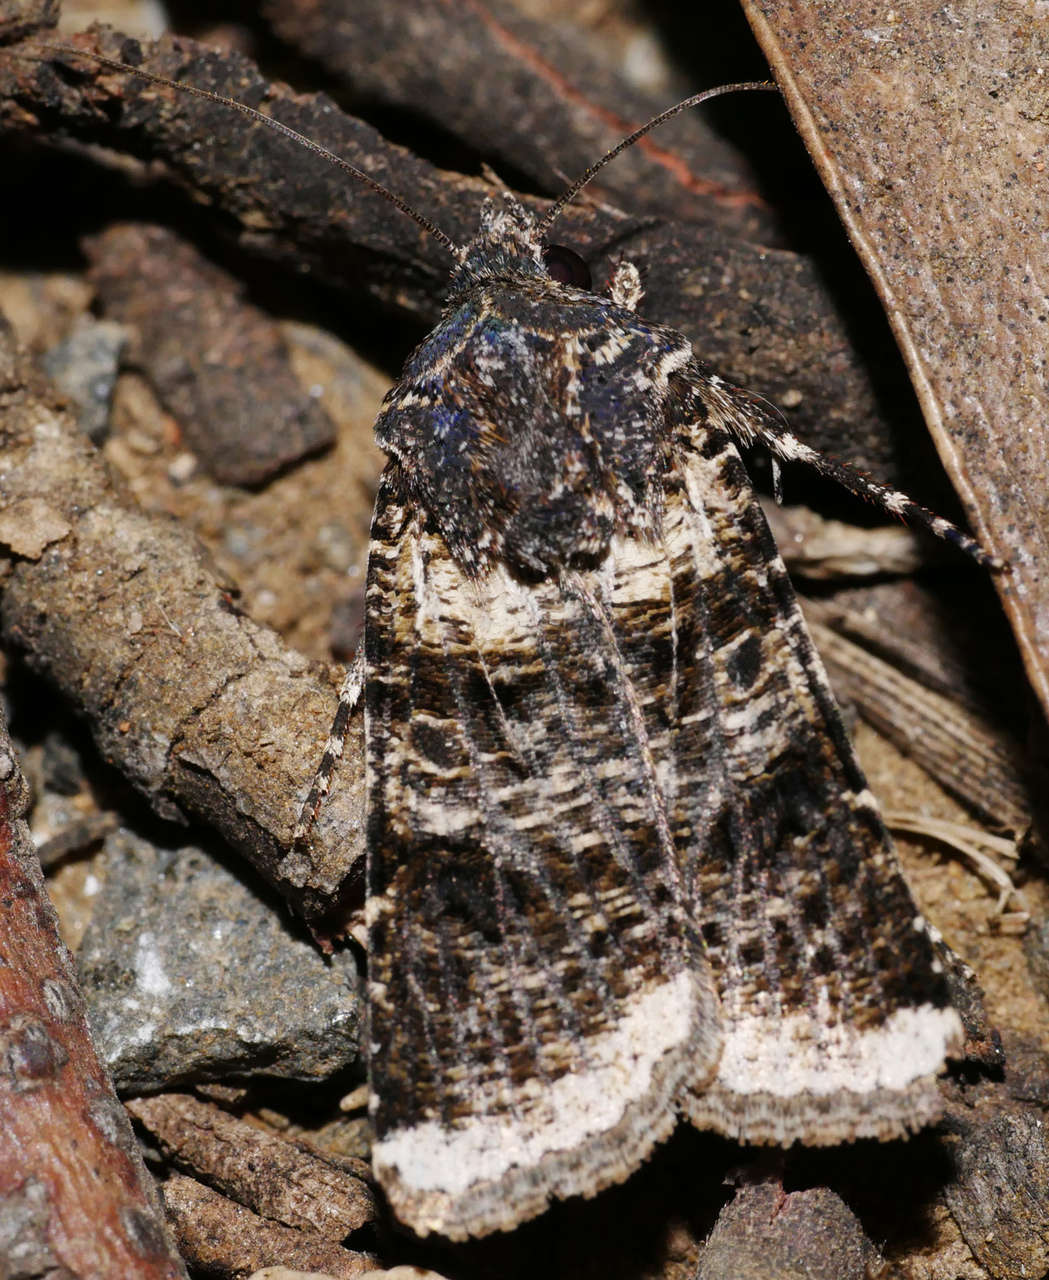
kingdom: Animalia
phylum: Arthropoda
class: Insecta
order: Lepidoptera
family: Noctuidae
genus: Agrotis
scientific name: Agrotis porphyricollis
